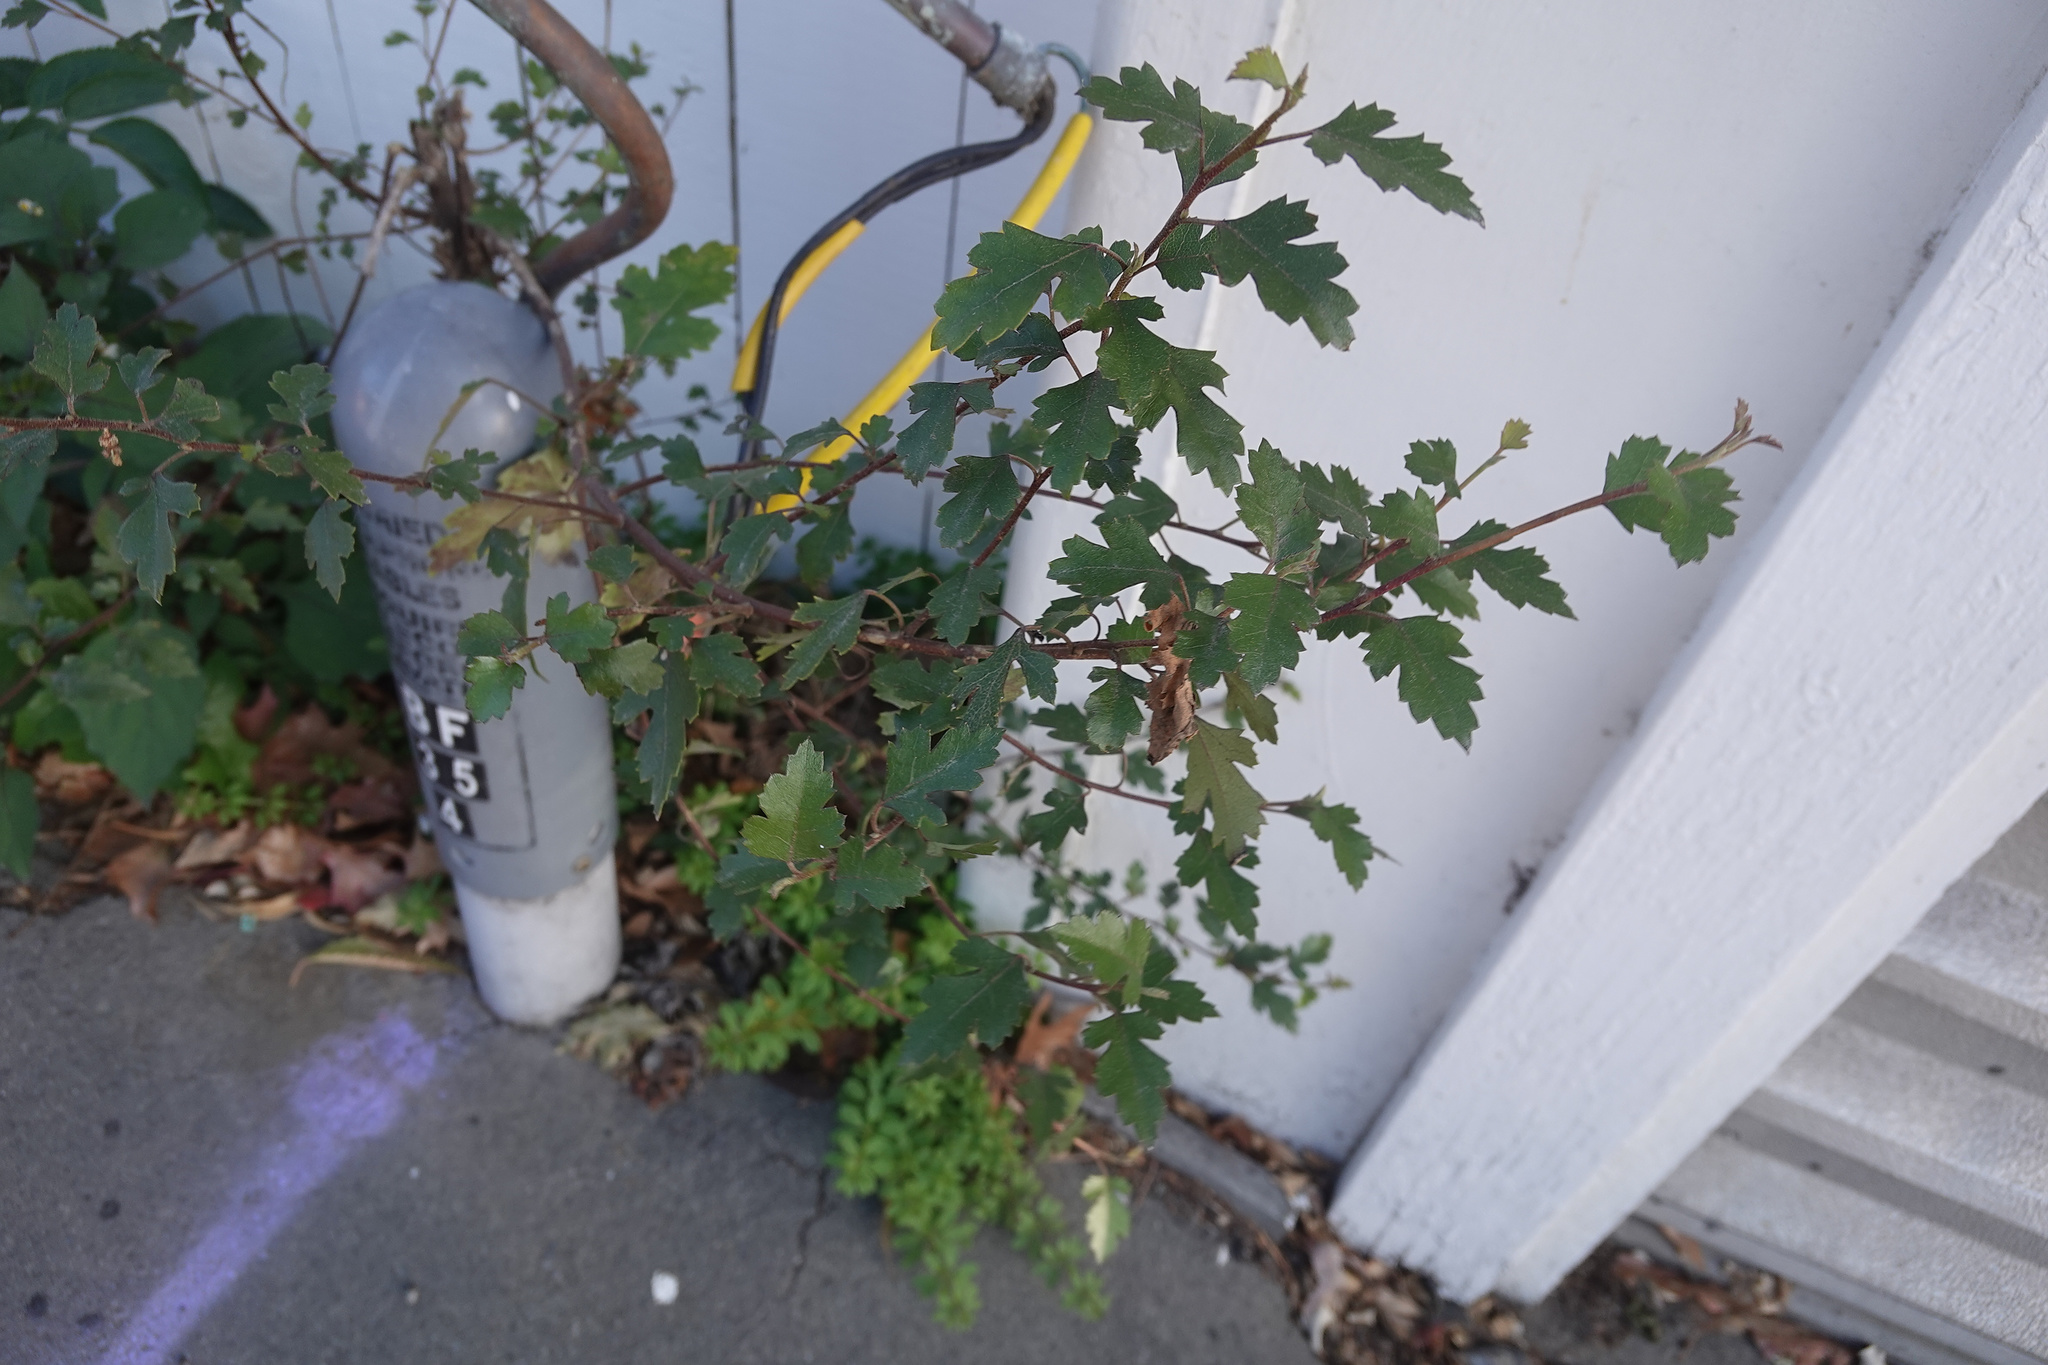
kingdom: Plantae
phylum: Tracheophyta
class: Magnoliopsida
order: Malvales
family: Malvaceae
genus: Plagianthus
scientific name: Plagianthus regius
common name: Manatu
